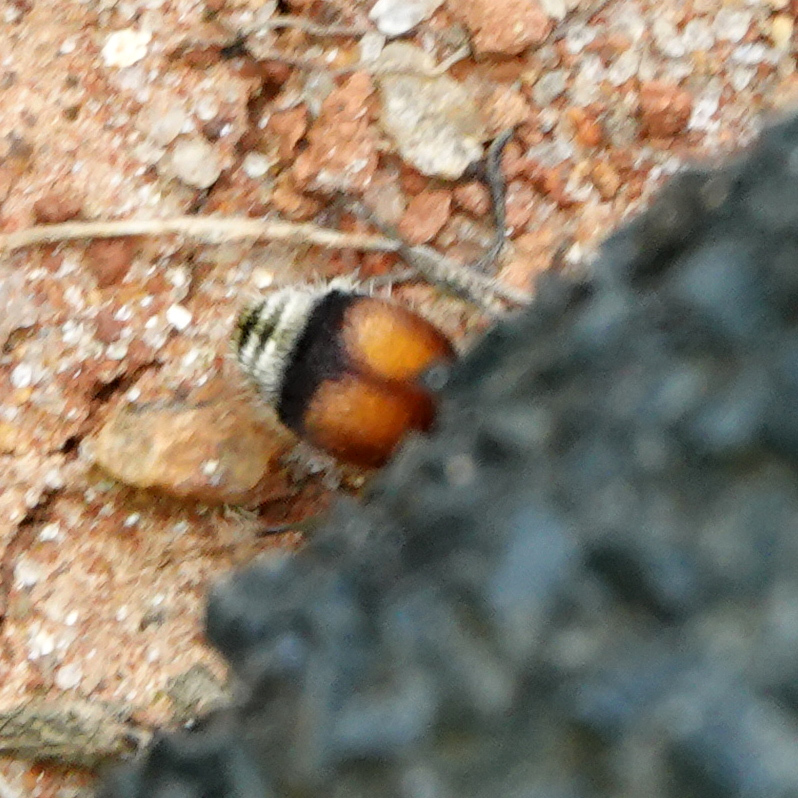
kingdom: Animalia
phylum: Arthropoda
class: Insecta
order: Hymenoptera
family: Mutillidae
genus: Pseudomethoca
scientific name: Pseudomethoca
